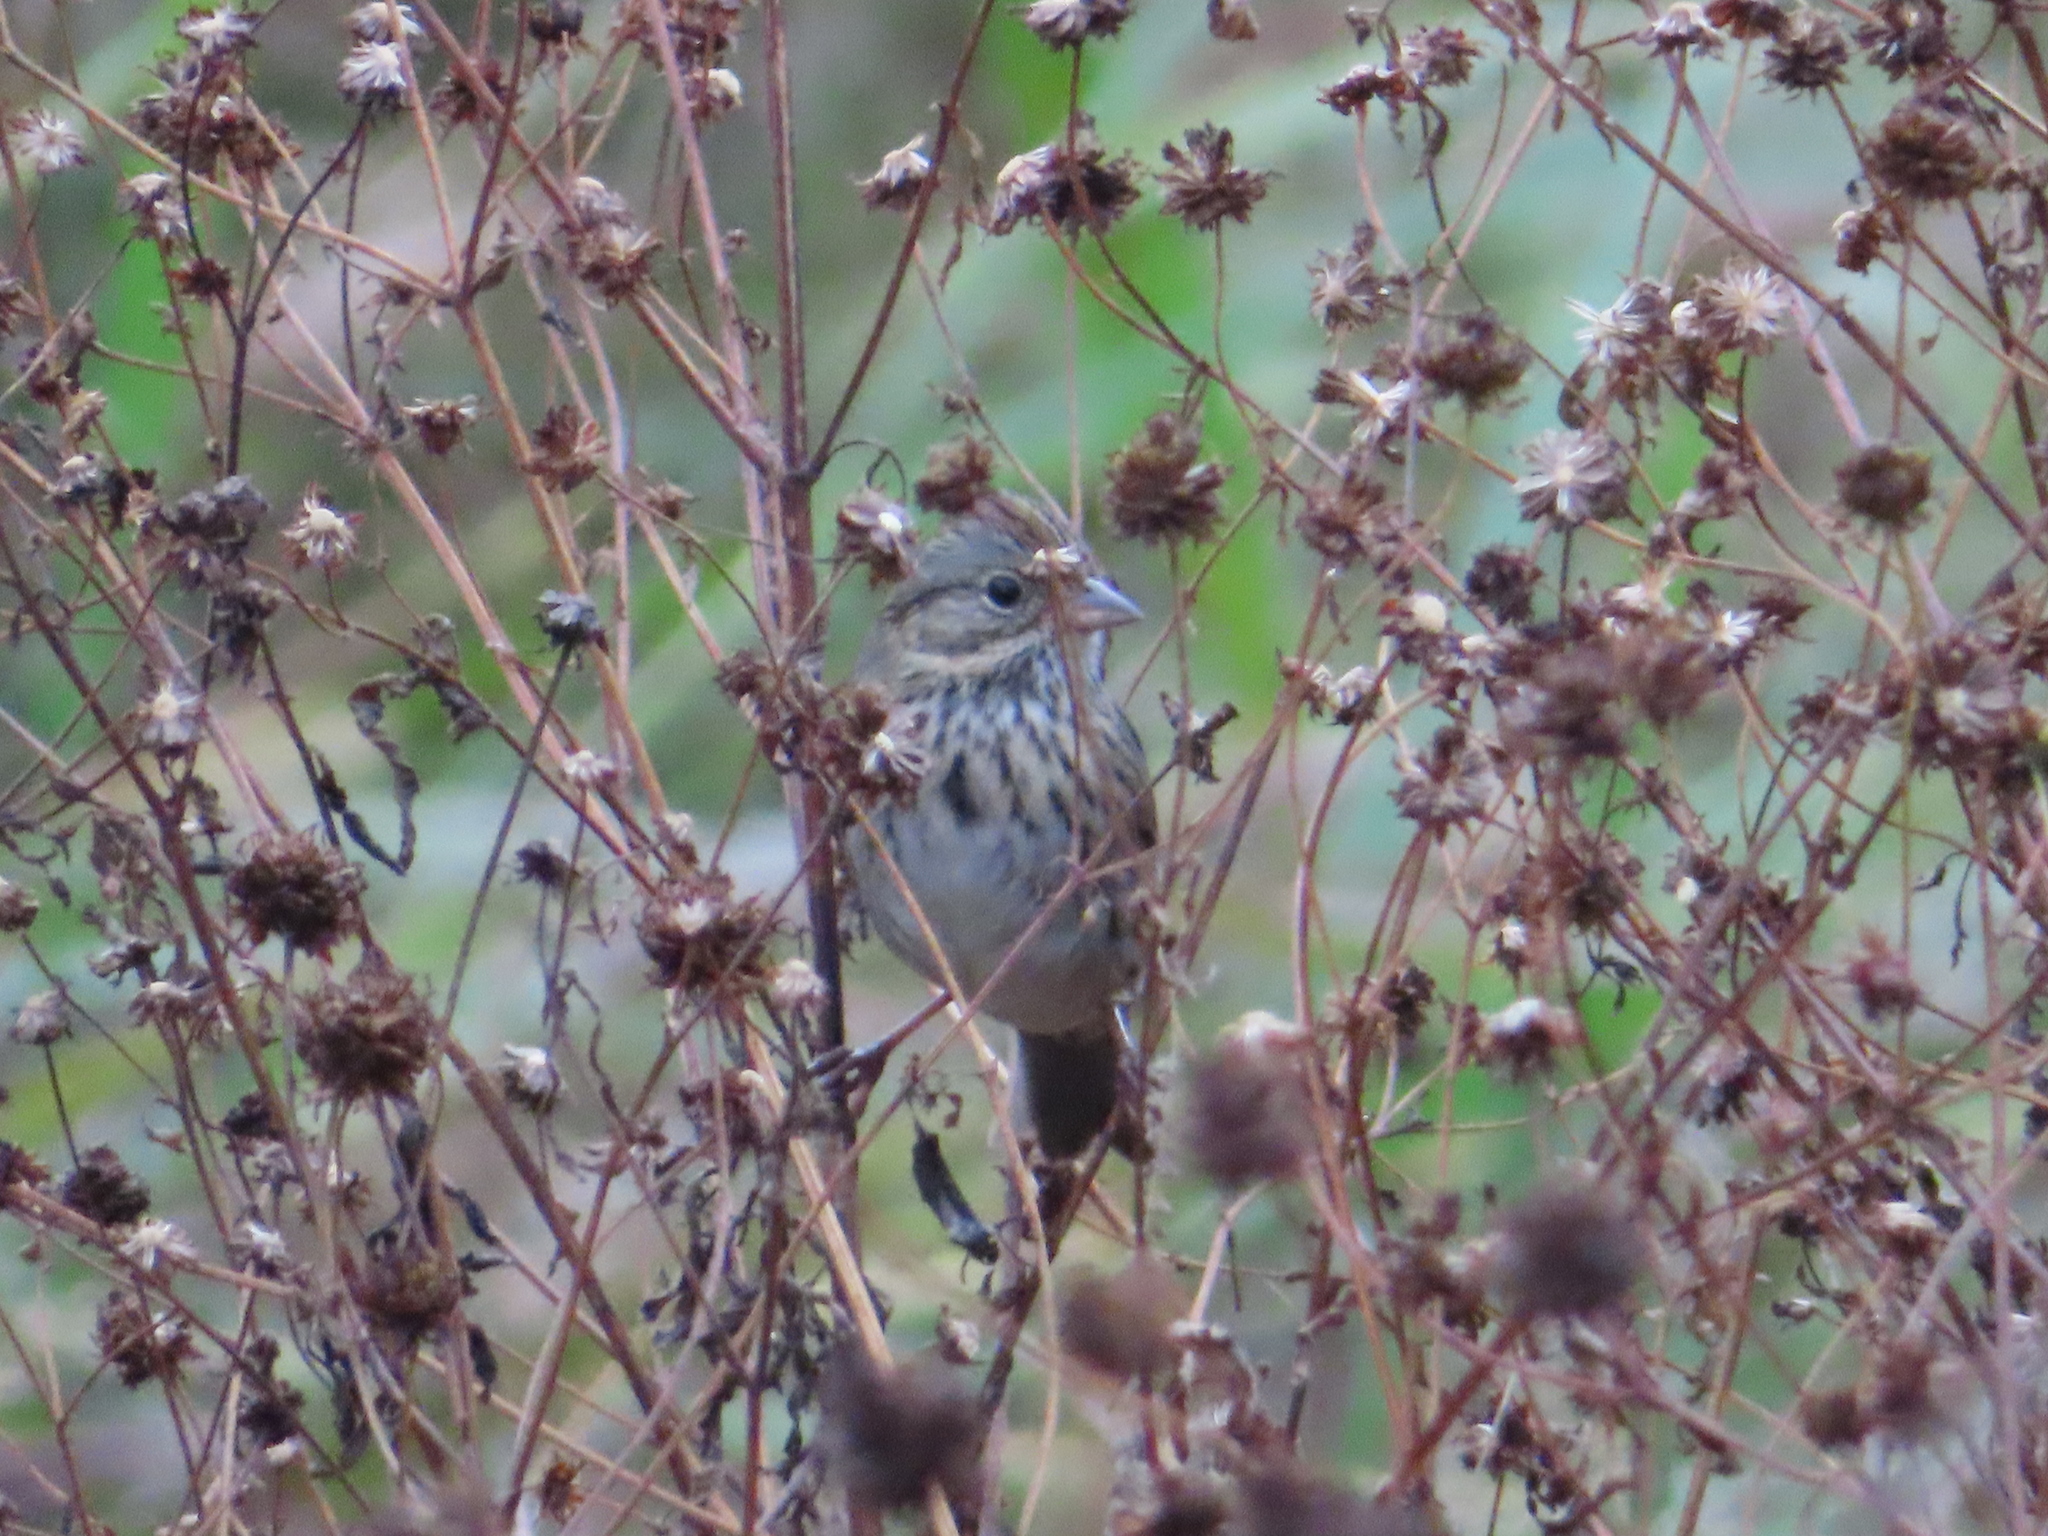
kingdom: Animalia
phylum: Chordata
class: Aves
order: Passeriformes
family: Passerellidae
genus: Melospiza
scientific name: Melospiza lincolnii
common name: Lincoln's sparrow
